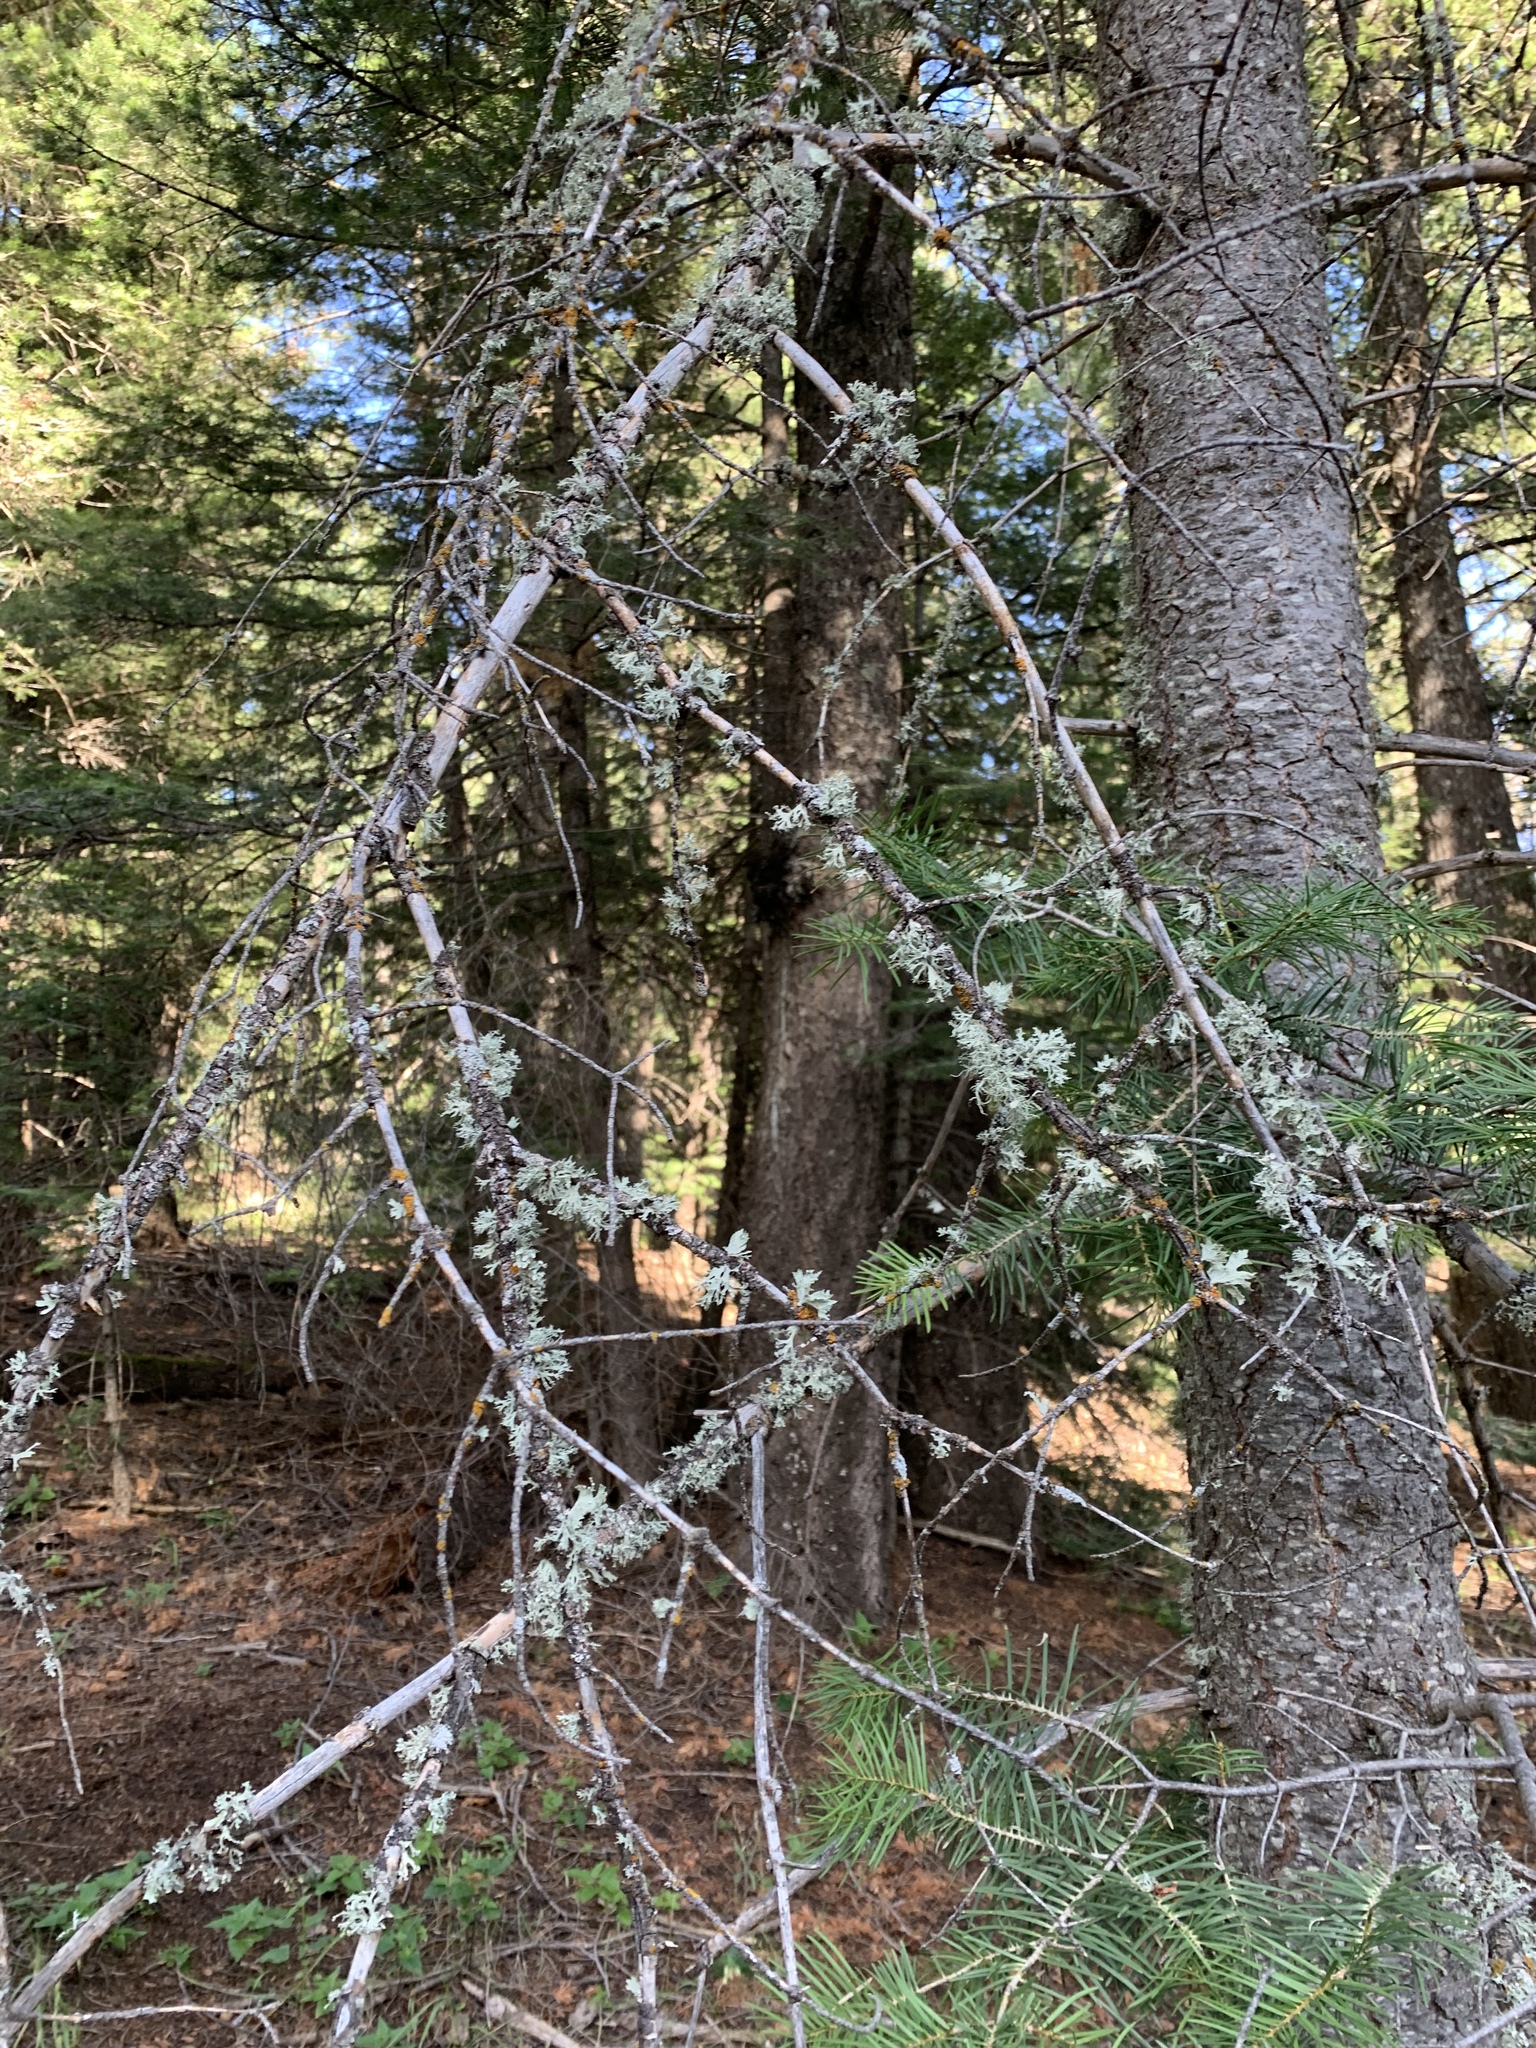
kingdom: Fungi
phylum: Ascomycota
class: Lecanoromycetes
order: Lecanorales
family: Ramalinaceae
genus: Ramalina
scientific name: Ramalina sinensis
